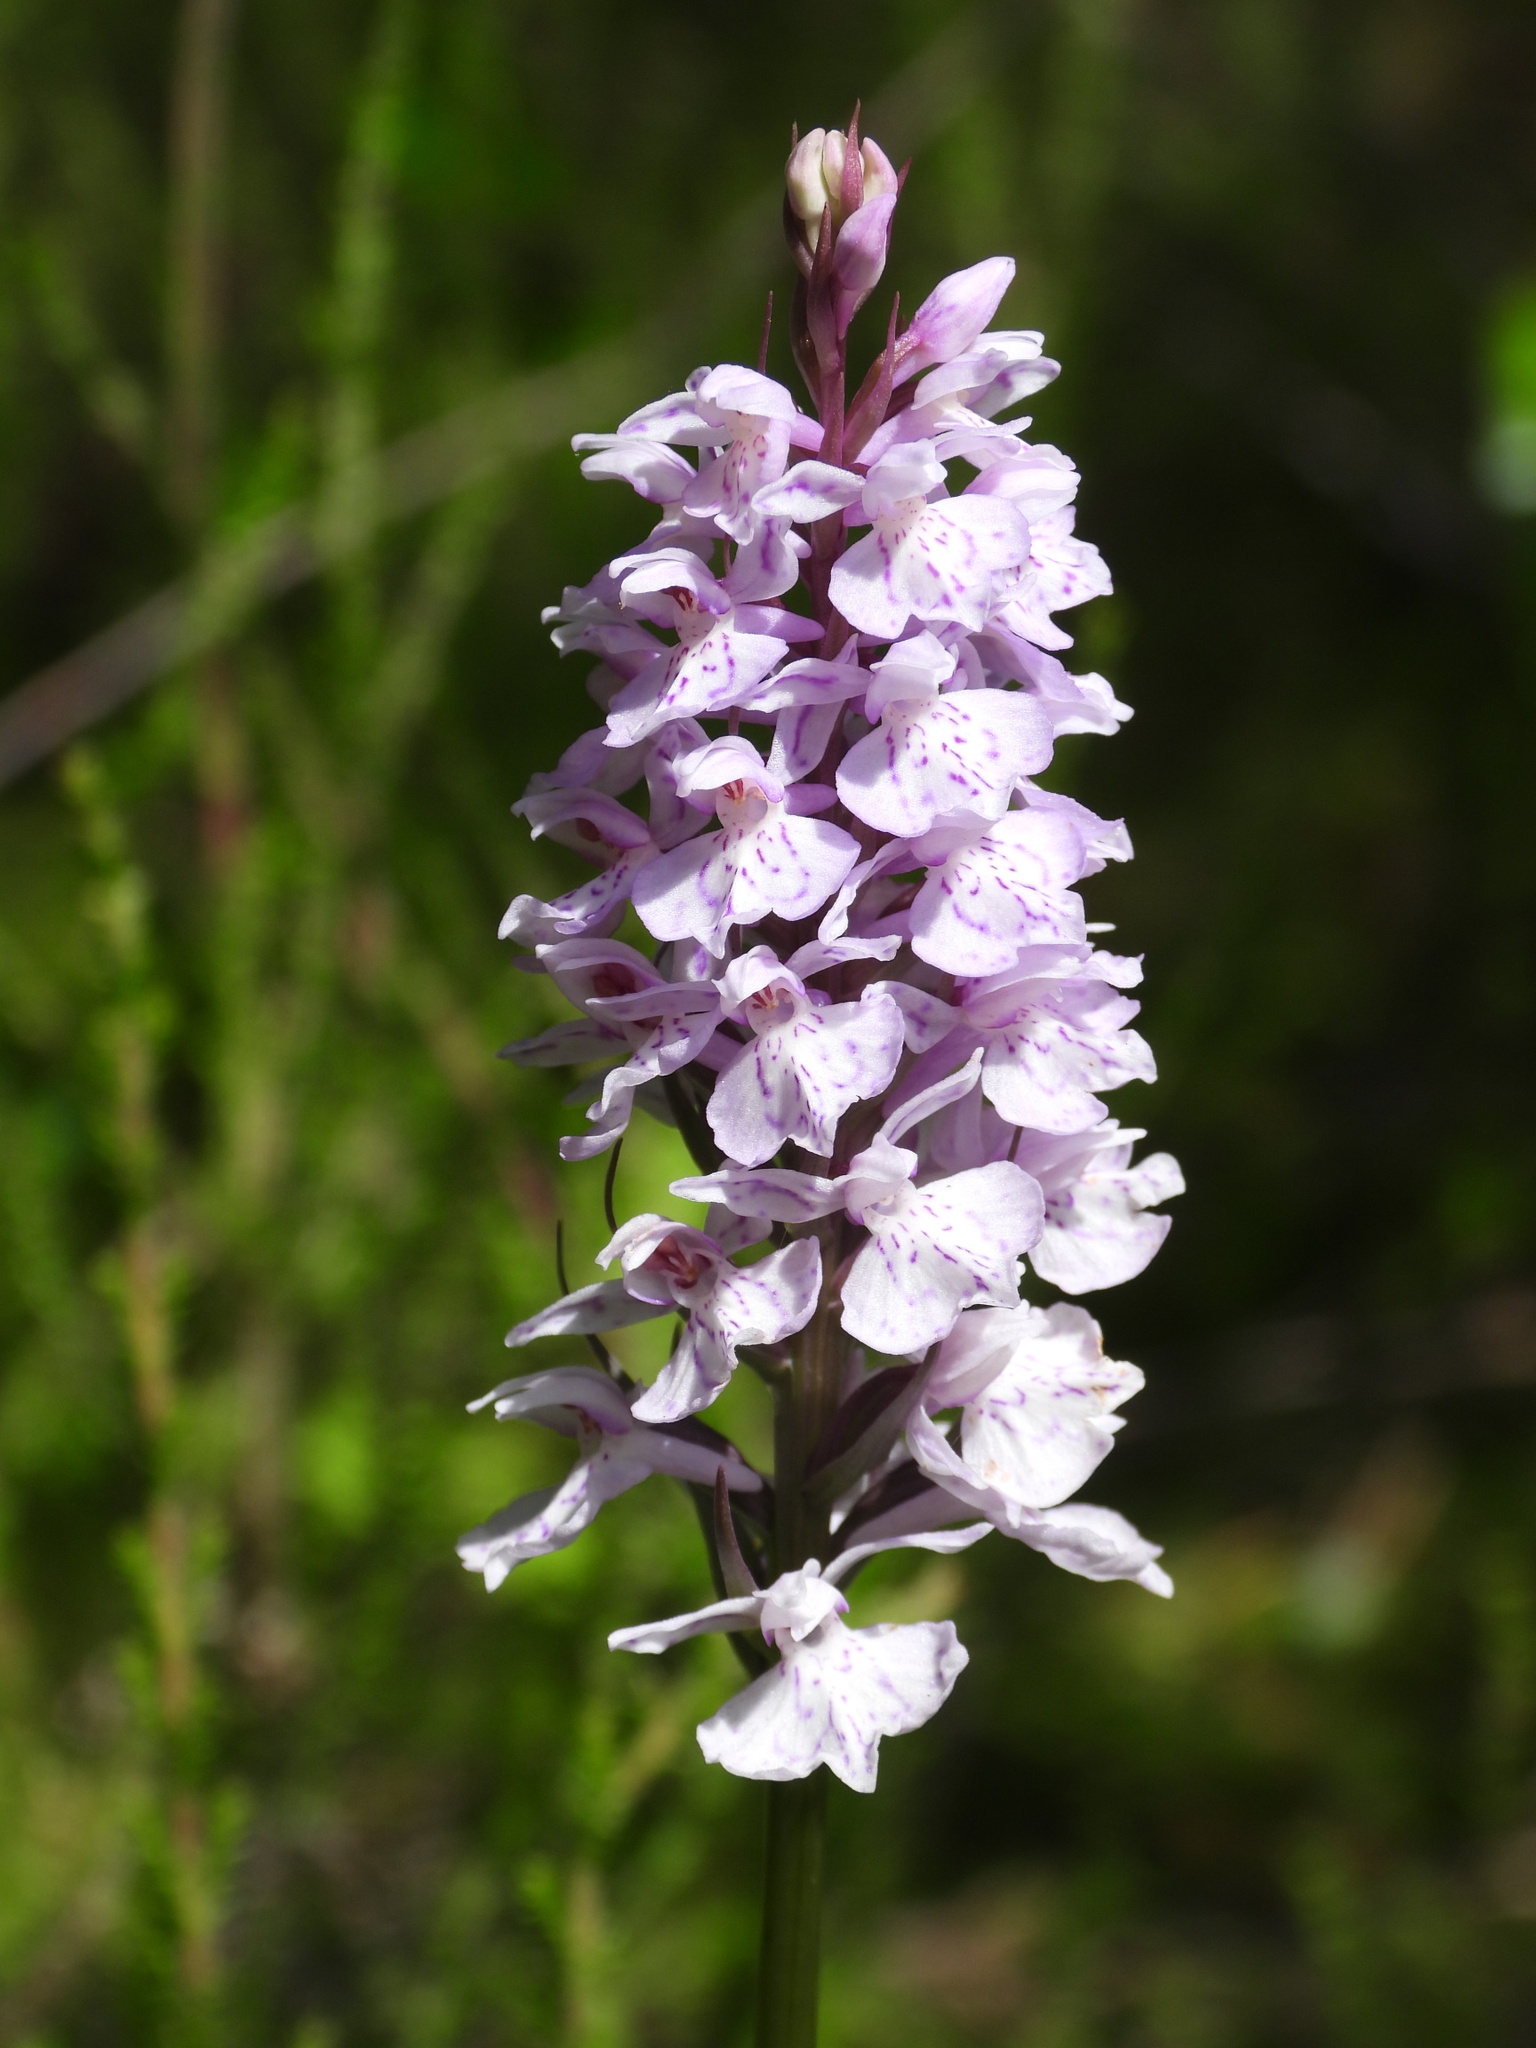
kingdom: Plantae
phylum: Tracheophyta
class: Liliopsida
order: Asparagales
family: Orchidaceae
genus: Dactylorhiza
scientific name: Dactylorhiza maculata
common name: Heath spotted-orchid
